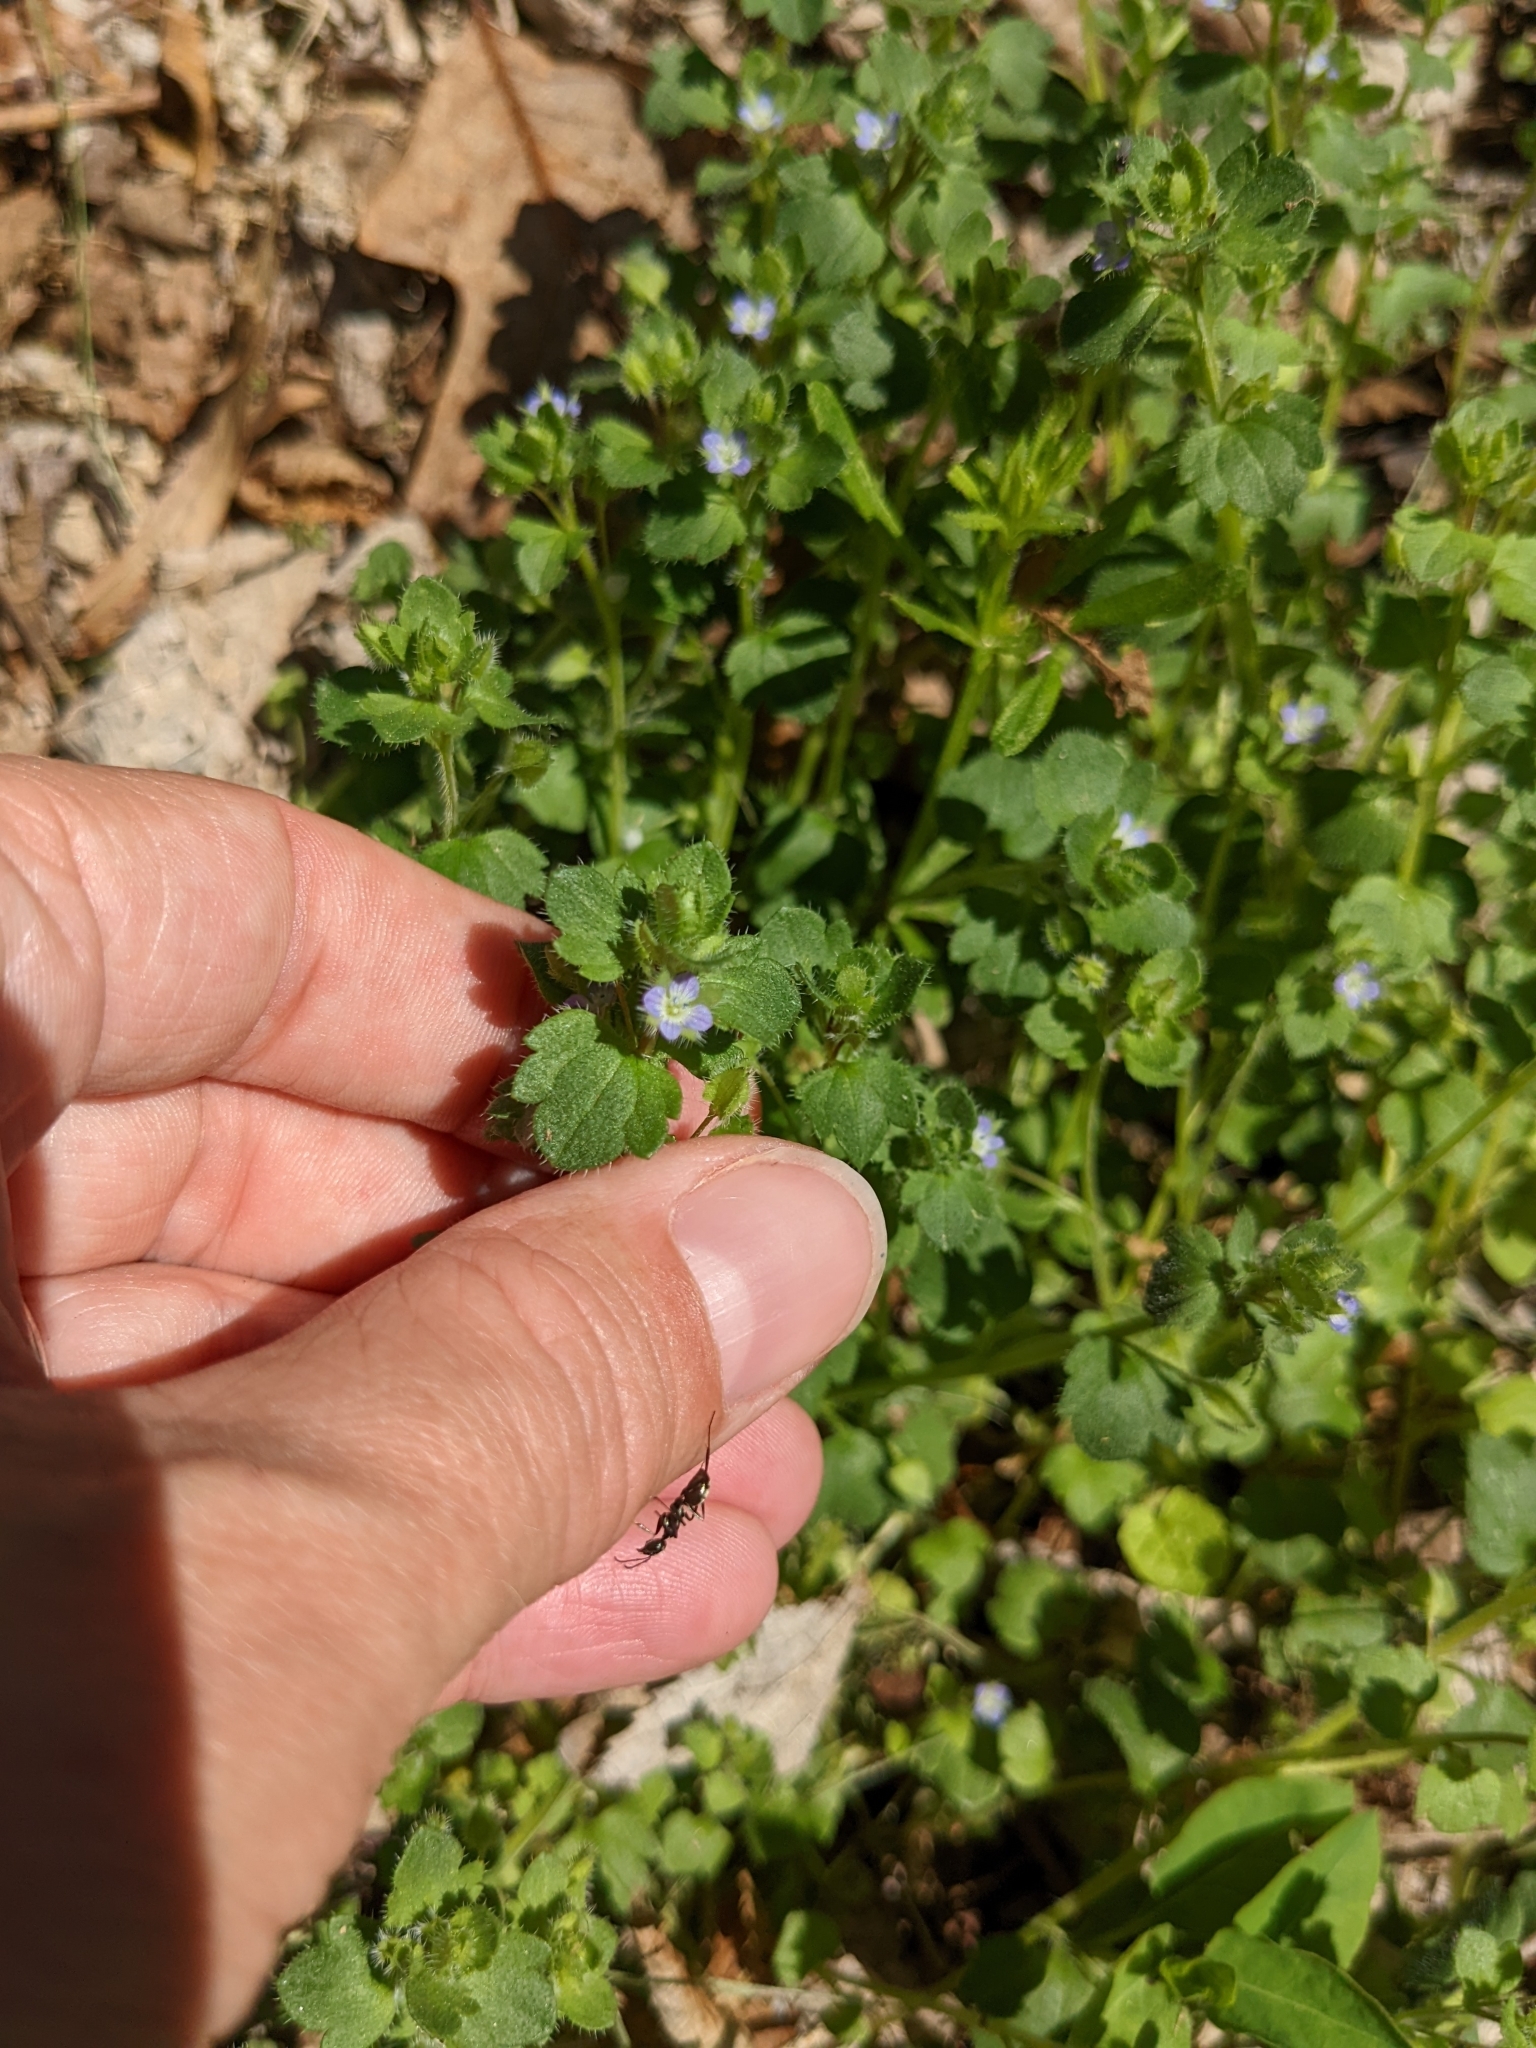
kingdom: Plantae
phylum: Tracheophyta
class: Magnoliopsida
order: Lamiales
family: Plantaginaceae
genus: Veronica
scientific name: Veronica hederifolia
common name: Ivy-leaved speedwell
